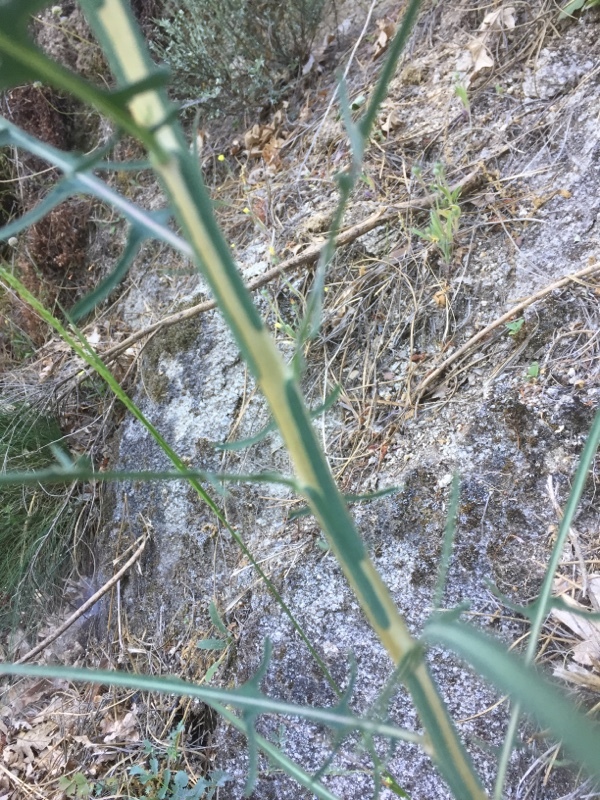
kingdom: Plantae
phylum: Tracheophyta
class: Magnoliopsida
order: Asterales
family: Asteraceae
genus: Lactuca
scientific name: Lactuca viminea
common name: Pliant lettuce
